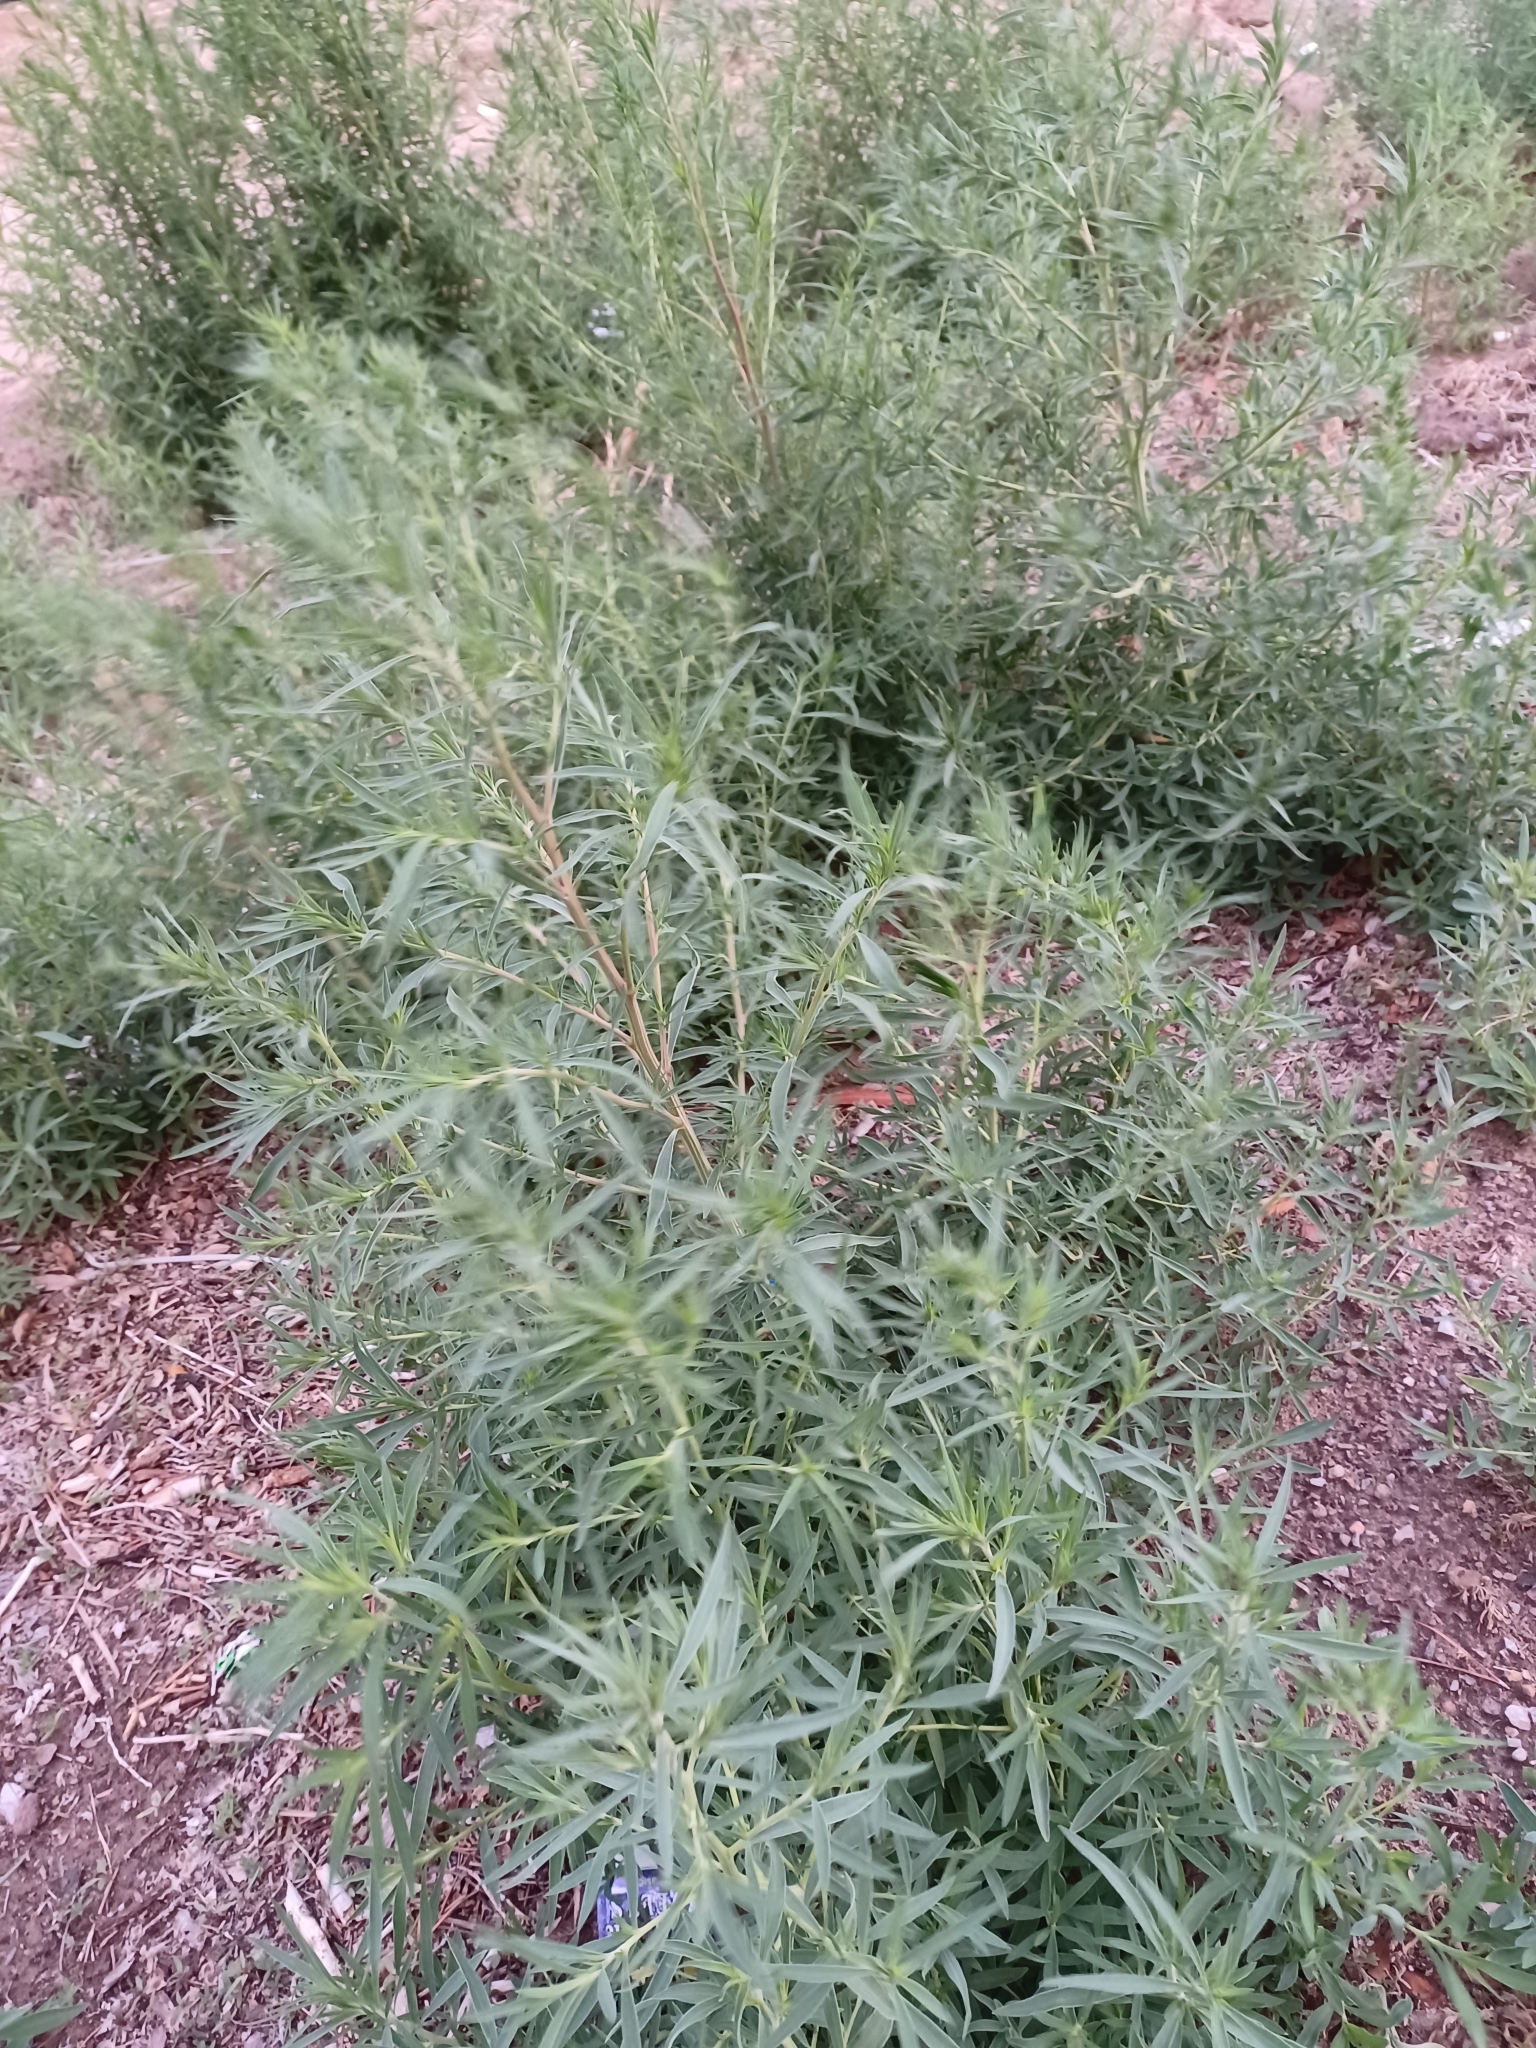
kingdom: Plantae
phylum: Tracheophyta
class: Magnoliopsida
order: Caryophyllales
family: Amaranthaceae
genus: Bassia
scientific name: Bassia scoparia
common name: Belvedere
